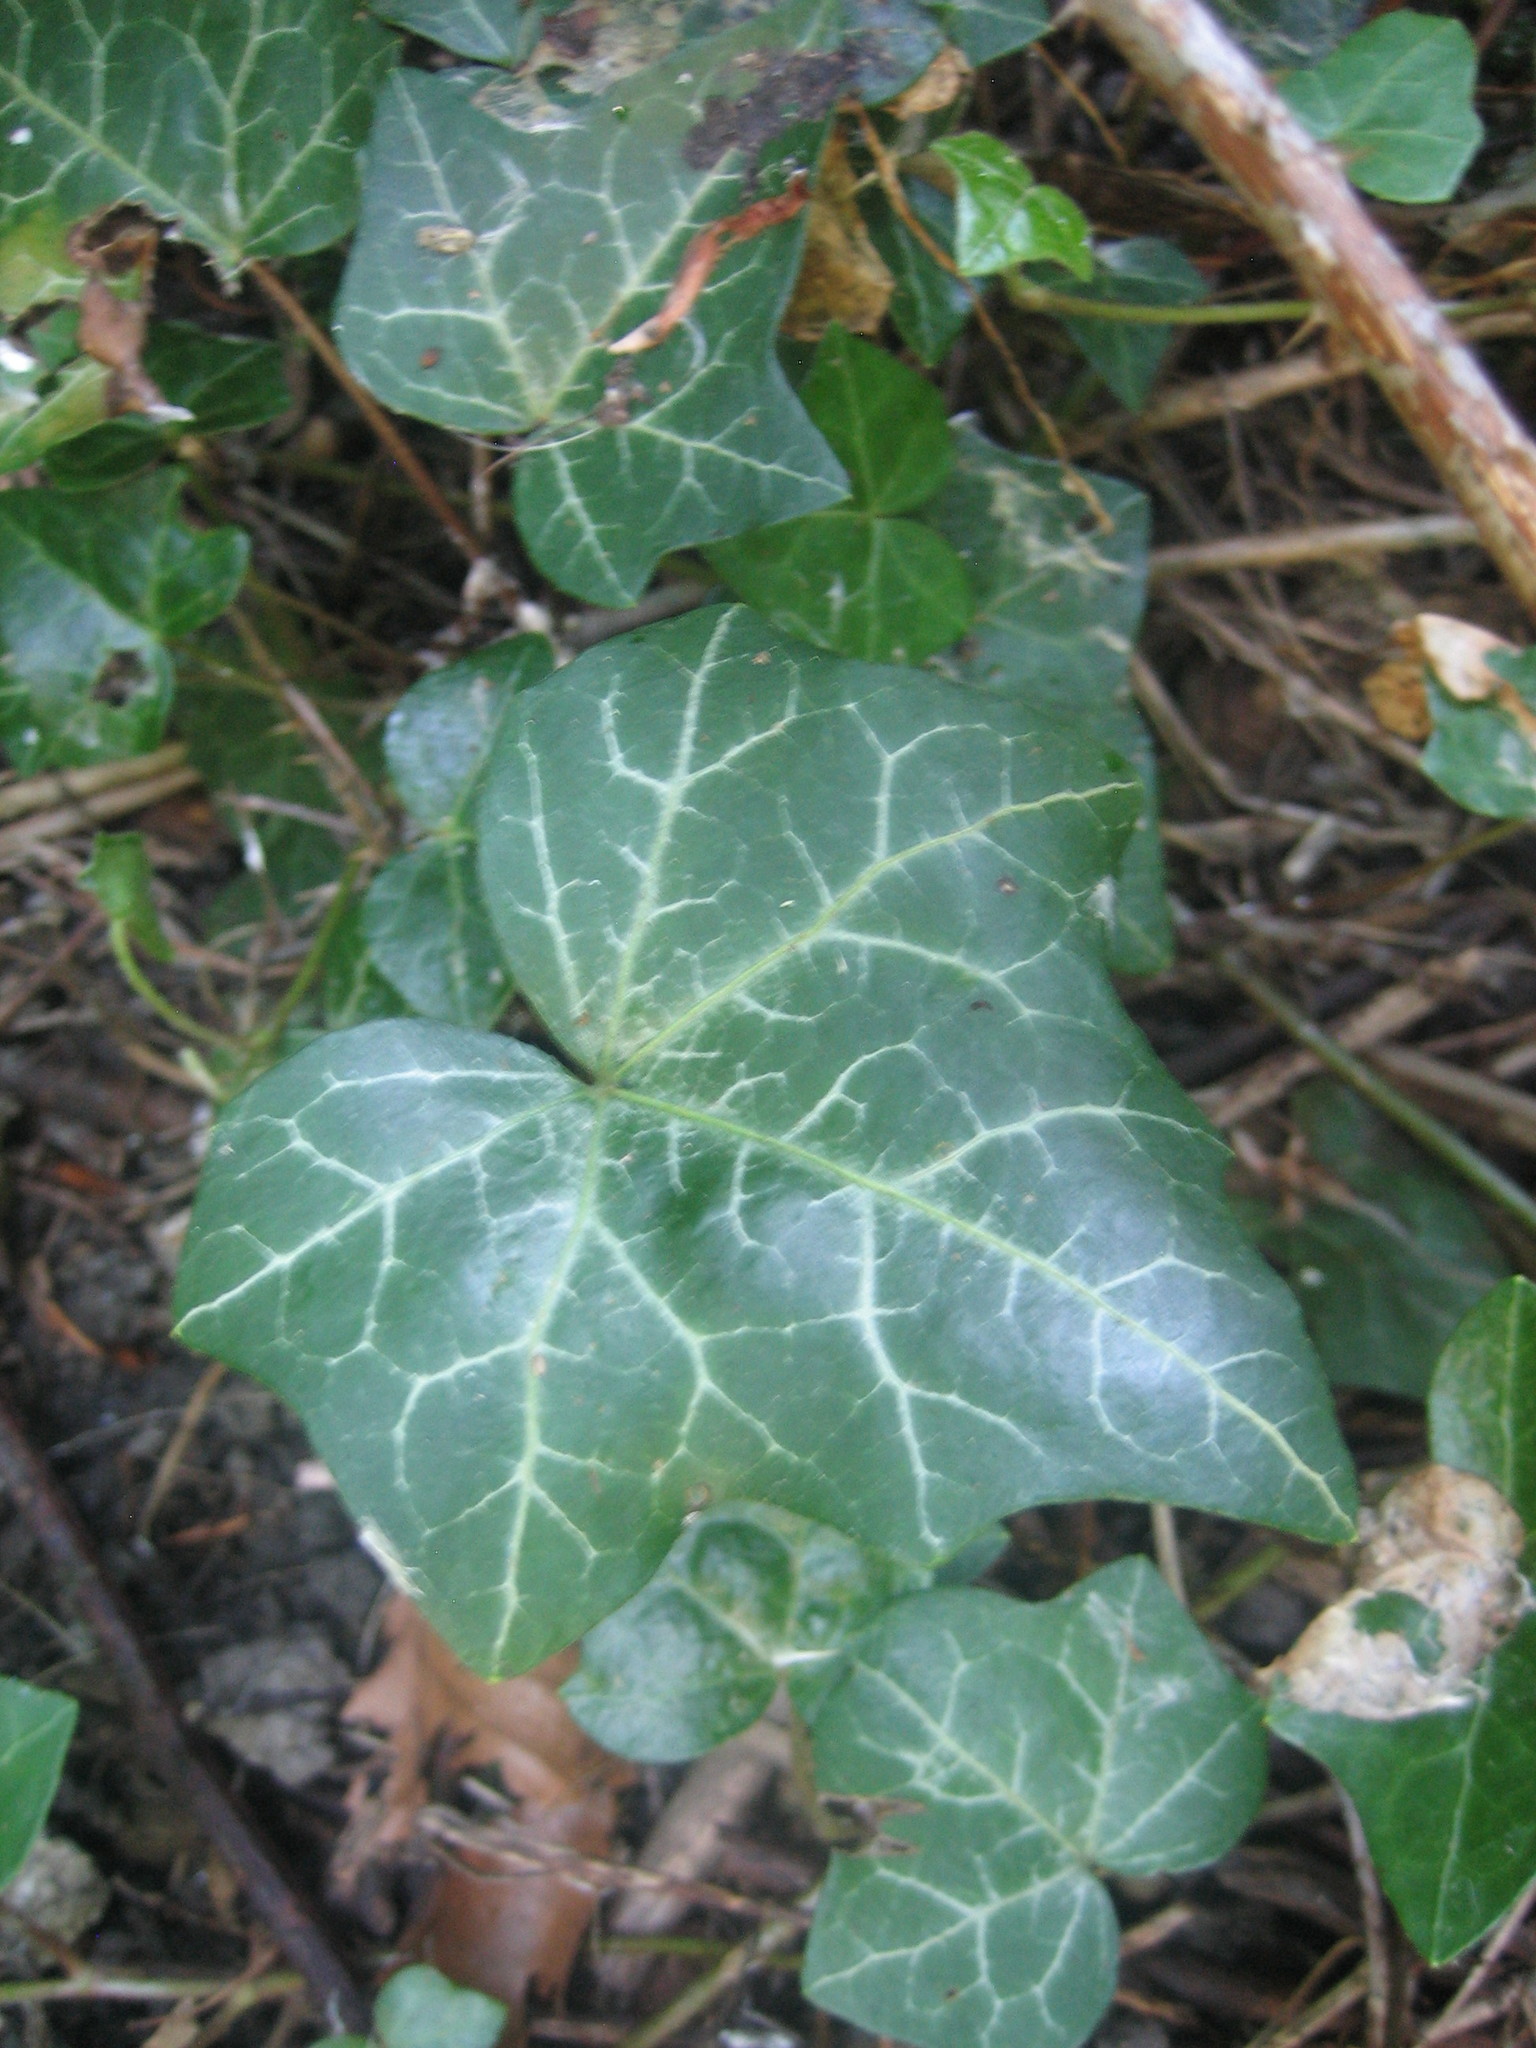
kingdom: Plantae
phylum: Tracheophyta
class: Magnoliopsida
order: Apiales
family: Araliaceae
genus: Hedera
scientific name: Hedera helix
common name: Ivy
